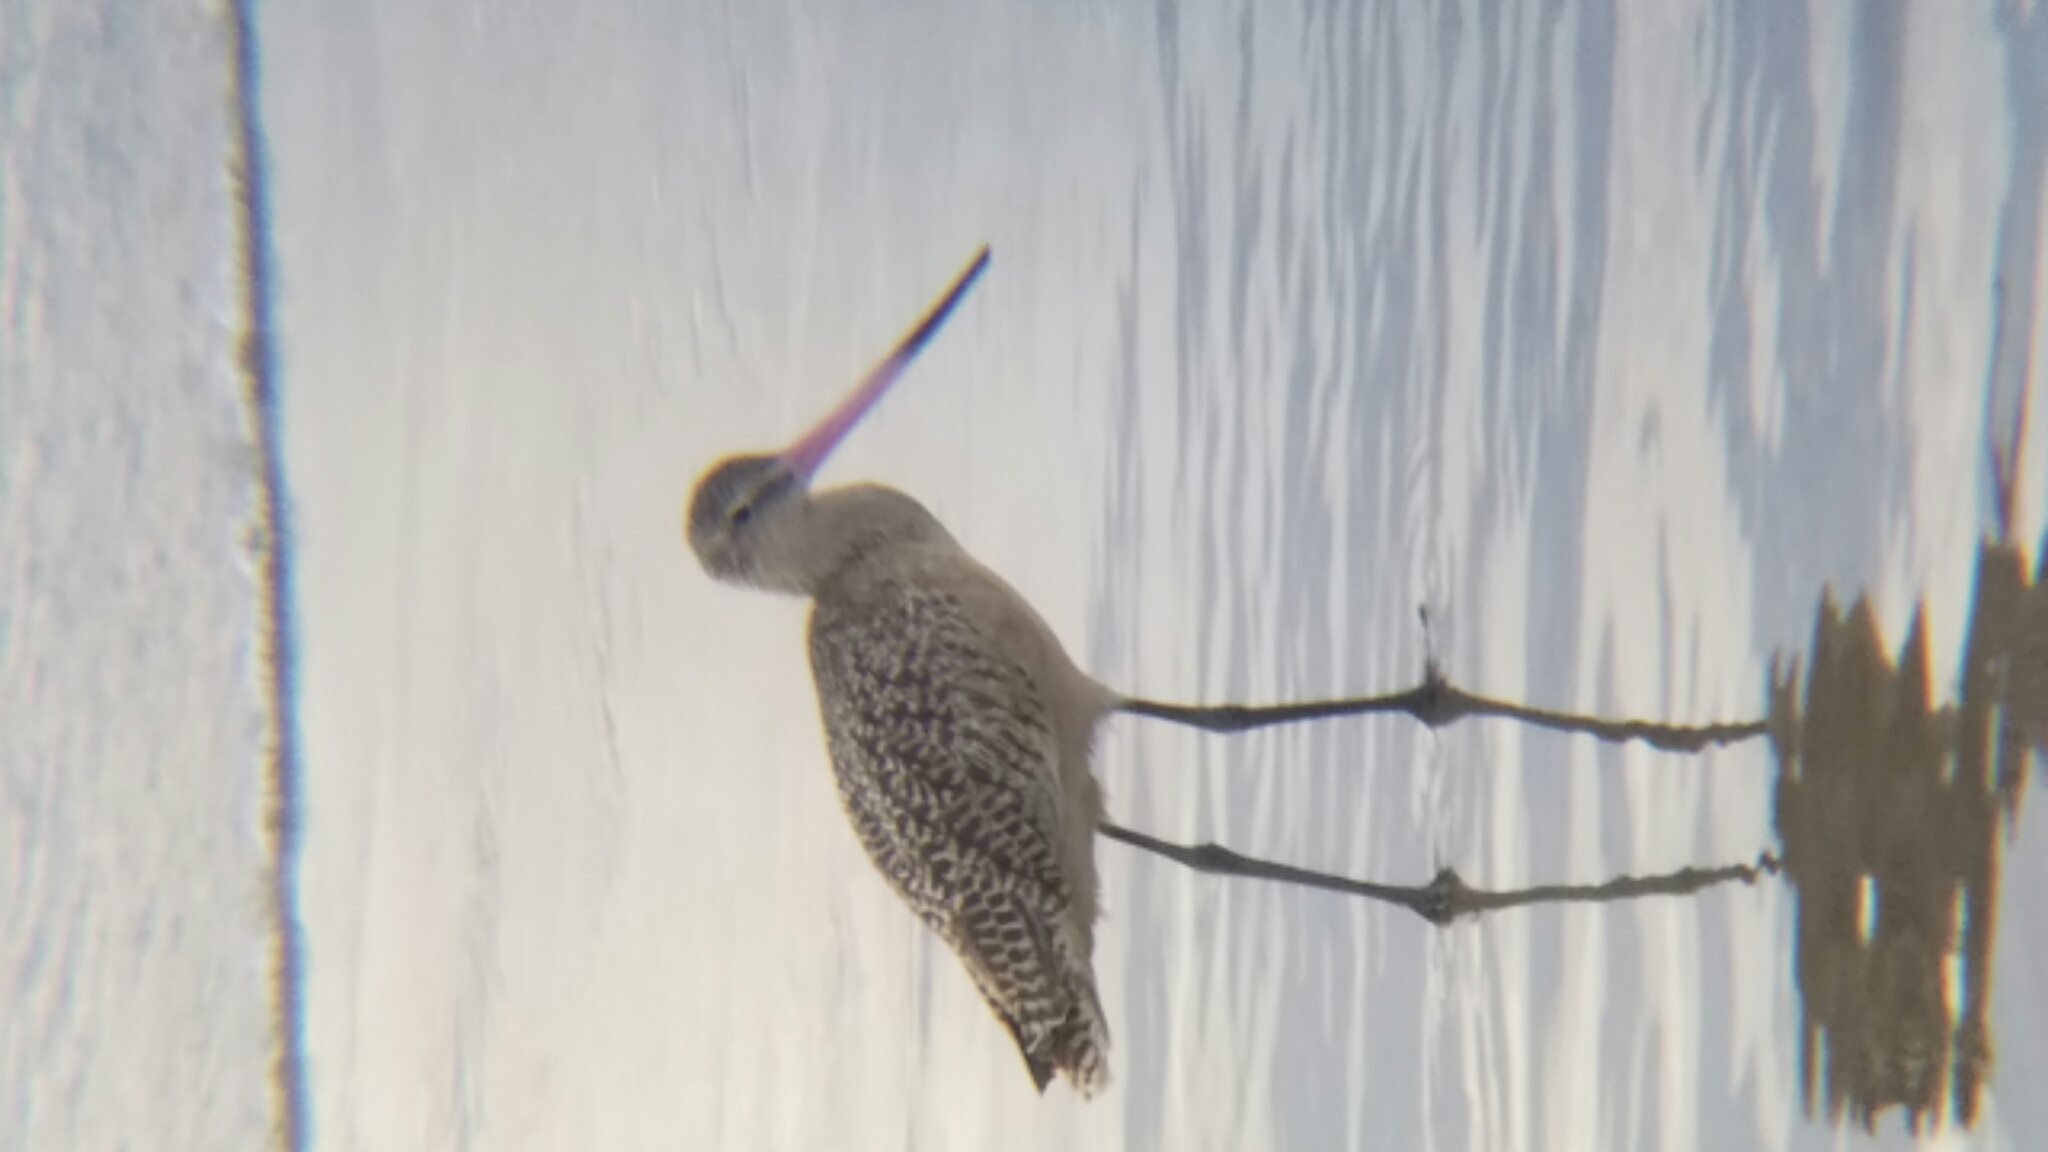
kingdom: Animalia
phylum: Chordata
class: Aves
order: Charadriiformes
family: Scolopacidae
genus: Limosa
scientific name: Limosa fedoa
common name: Marbled godwit
